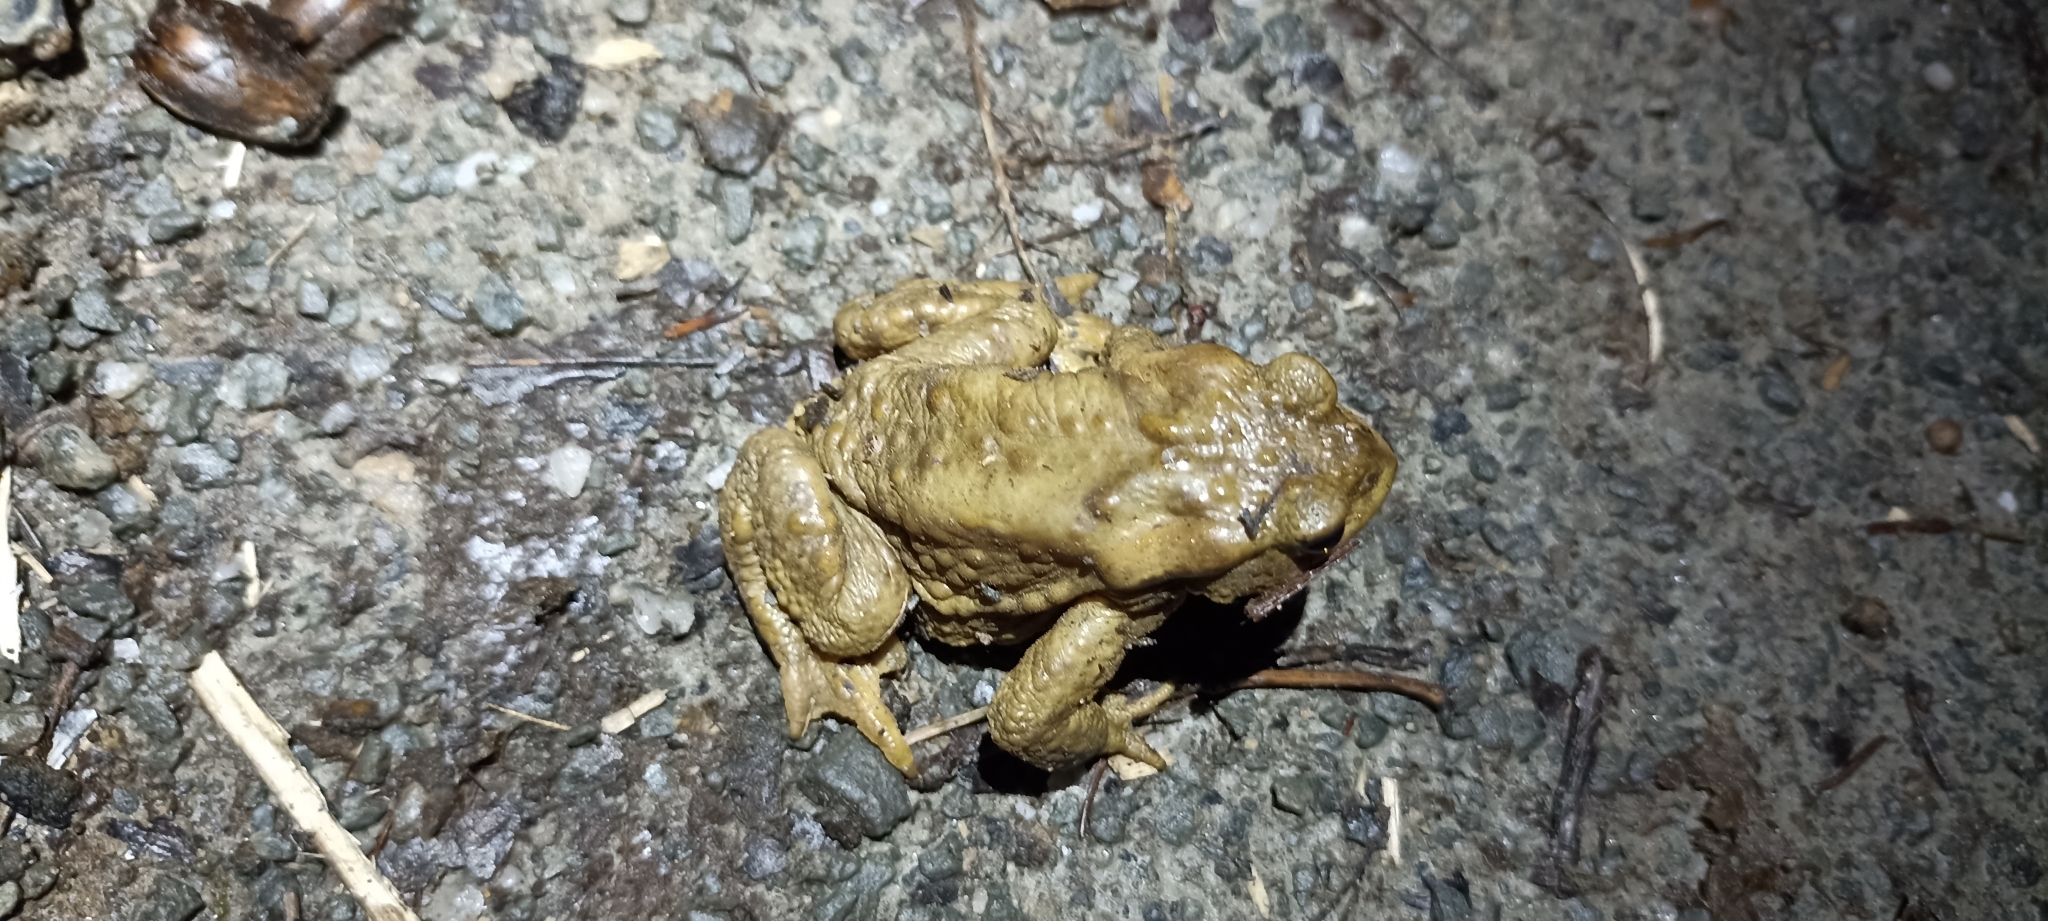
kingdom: Animalia
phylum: Chordata
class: Amphibia
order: Anura
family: Bufonidae
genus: Bufo
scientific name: Bufo spinosus
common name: Western common toad
